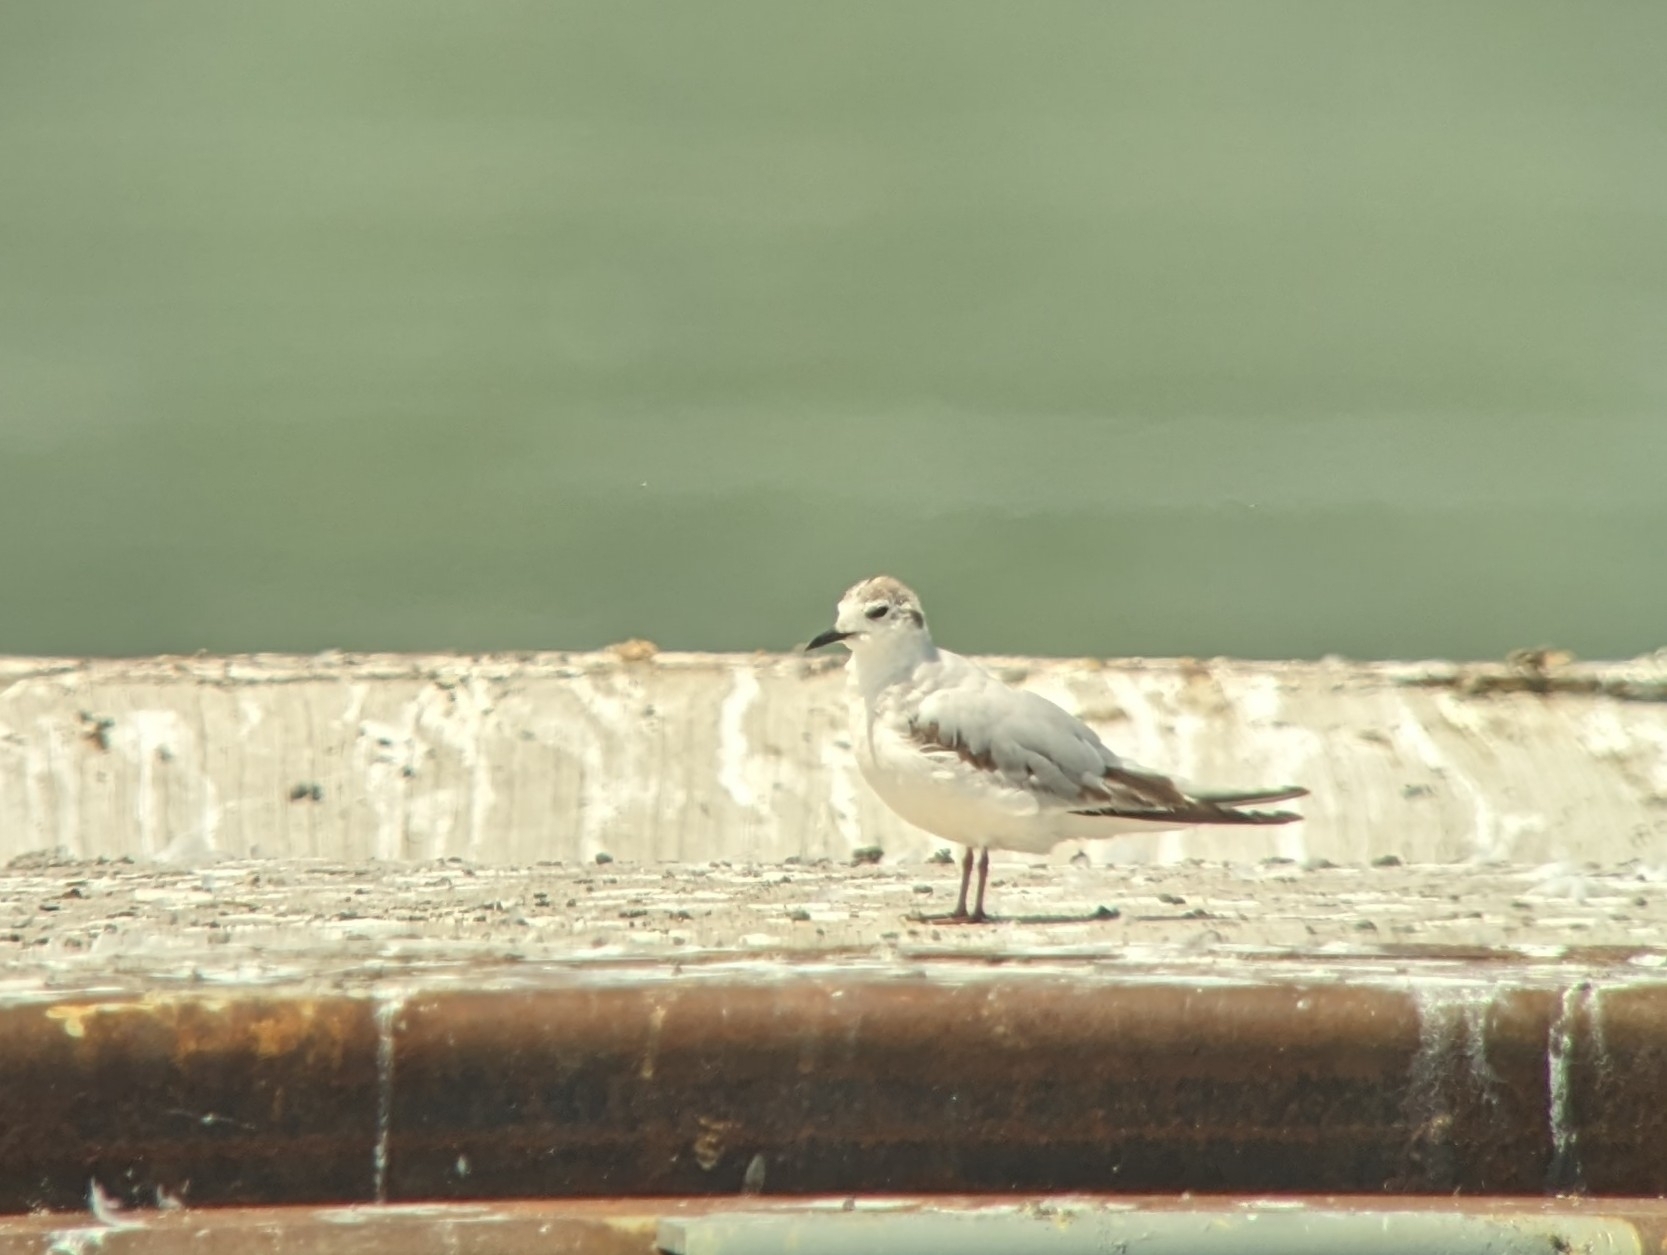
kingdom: Animalia
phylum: Chordata
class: Aves
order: Charadriiformes
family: Laridae
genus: Hydrocoloeus
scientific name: Hydrocoloeus minutus
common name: Little gull
